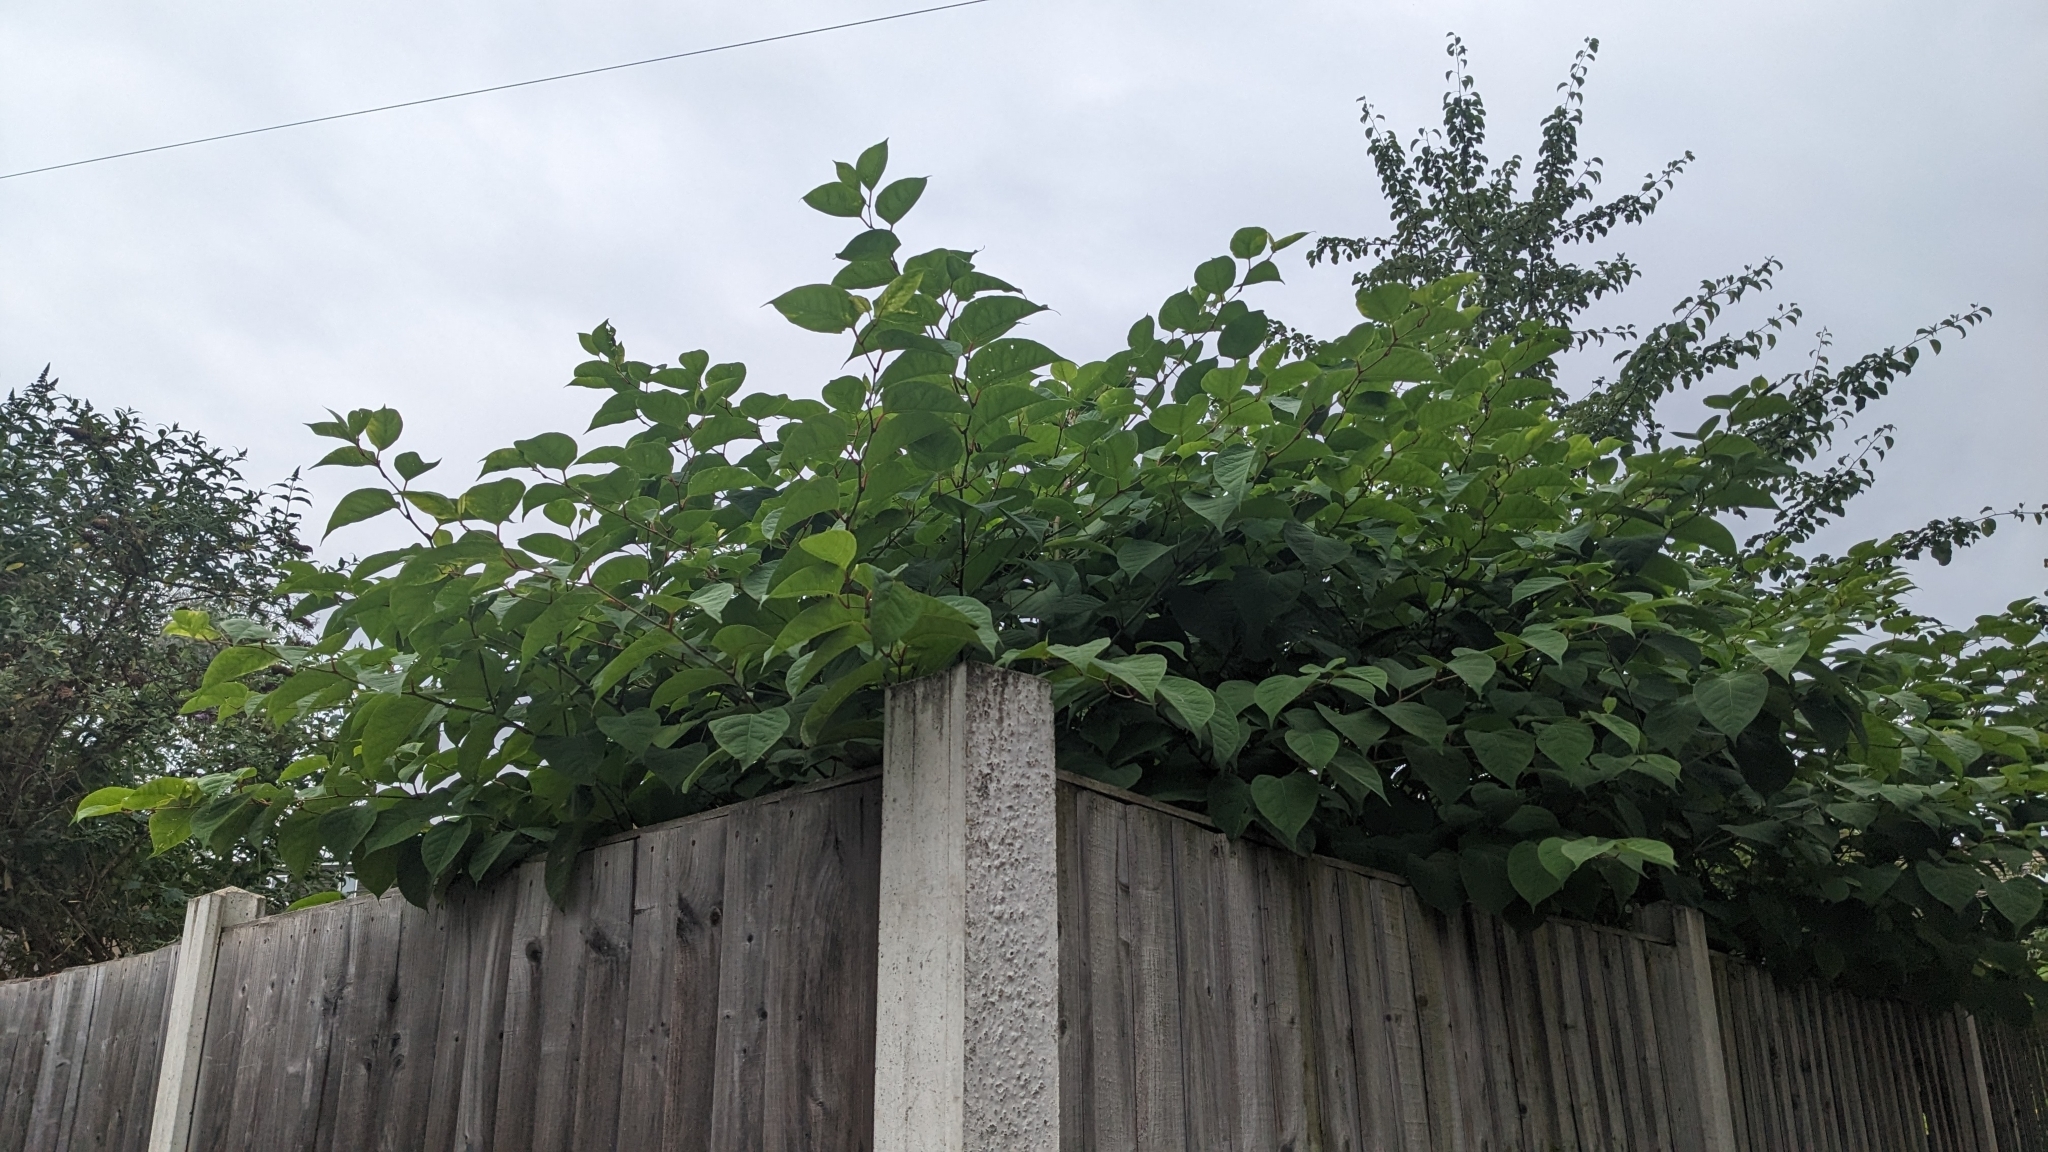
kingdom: Plantae
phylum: Tracheophyta
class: Magnoliopsida
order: Caryophyllales
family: Polygonaceae
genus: Reynoutria
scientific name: Reynoutria japonica
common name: Japanese knotweed
